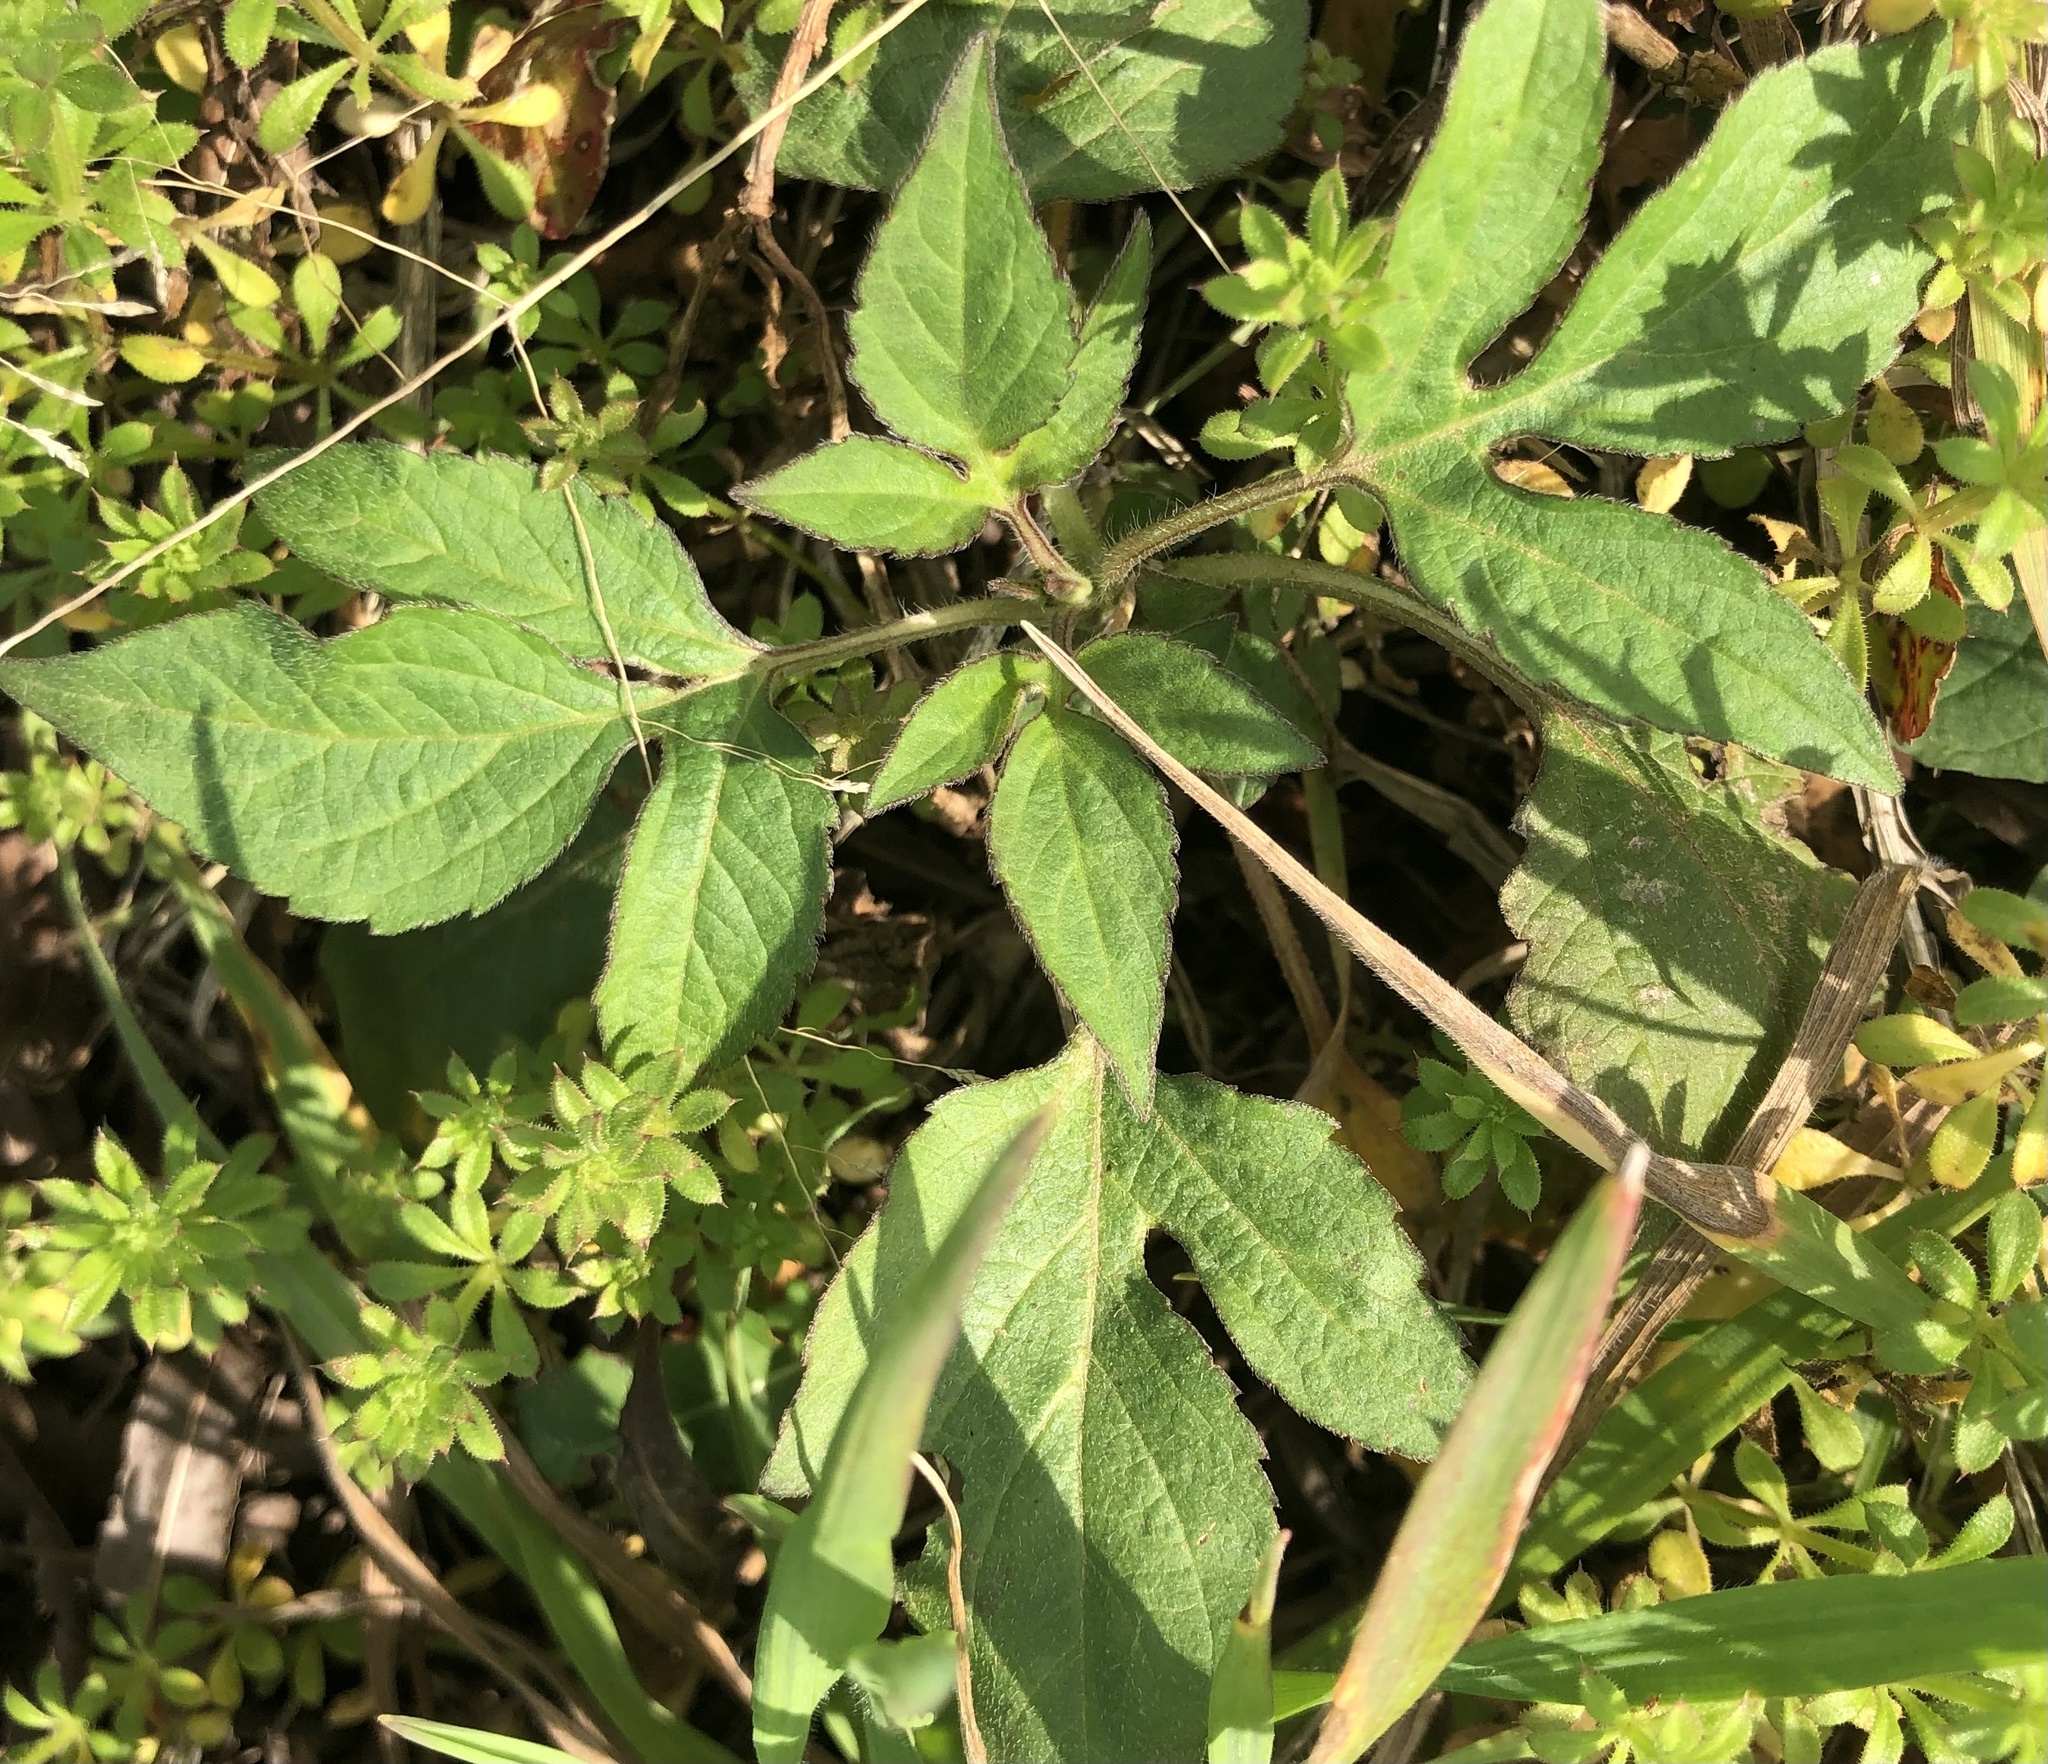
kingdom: Plantae
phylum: Tracheophyta
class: Magnoliopsida
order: Asterales
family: Asteraceae
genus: Ambrosia
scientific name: Ambrosia trifida
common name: Giant ragweed
